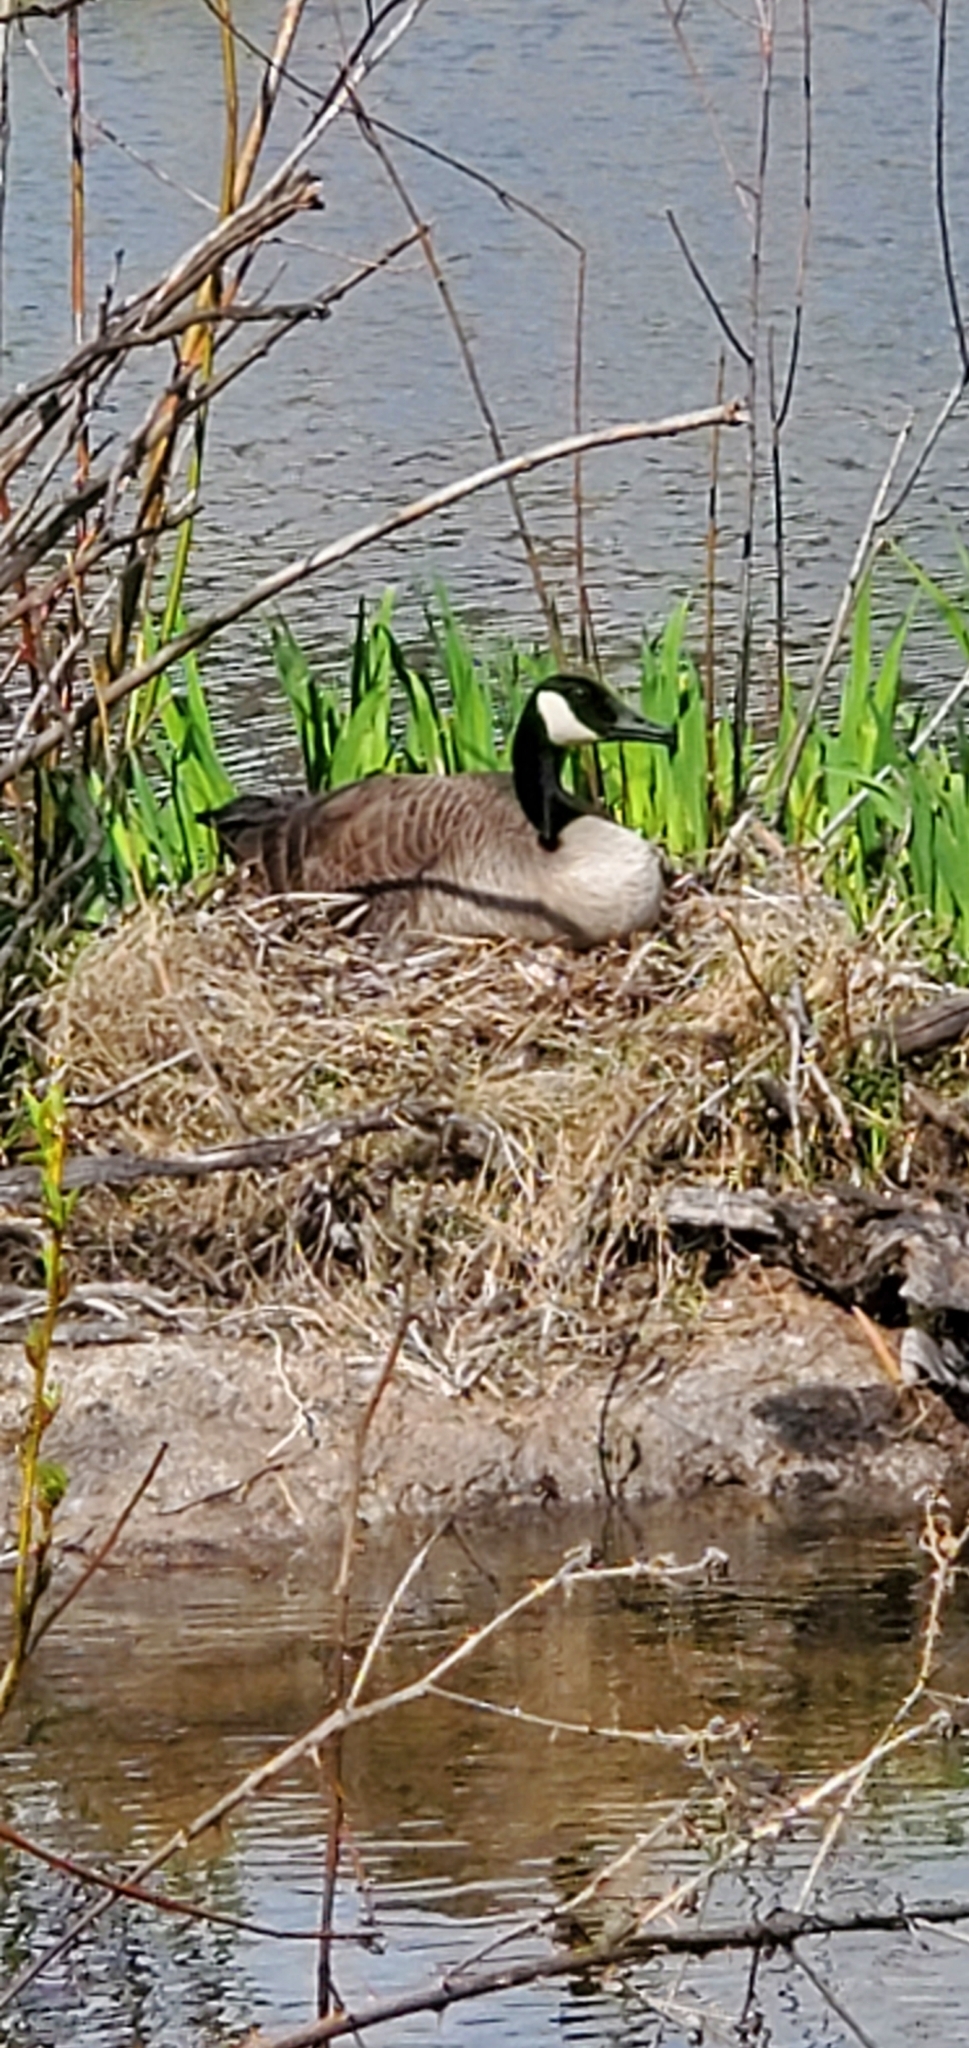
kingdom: Animalia
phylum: Chordata
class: Aves
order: Anseriformes
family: Anatidae
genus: Branta
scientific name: Branta canadensis
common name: Canada goose
